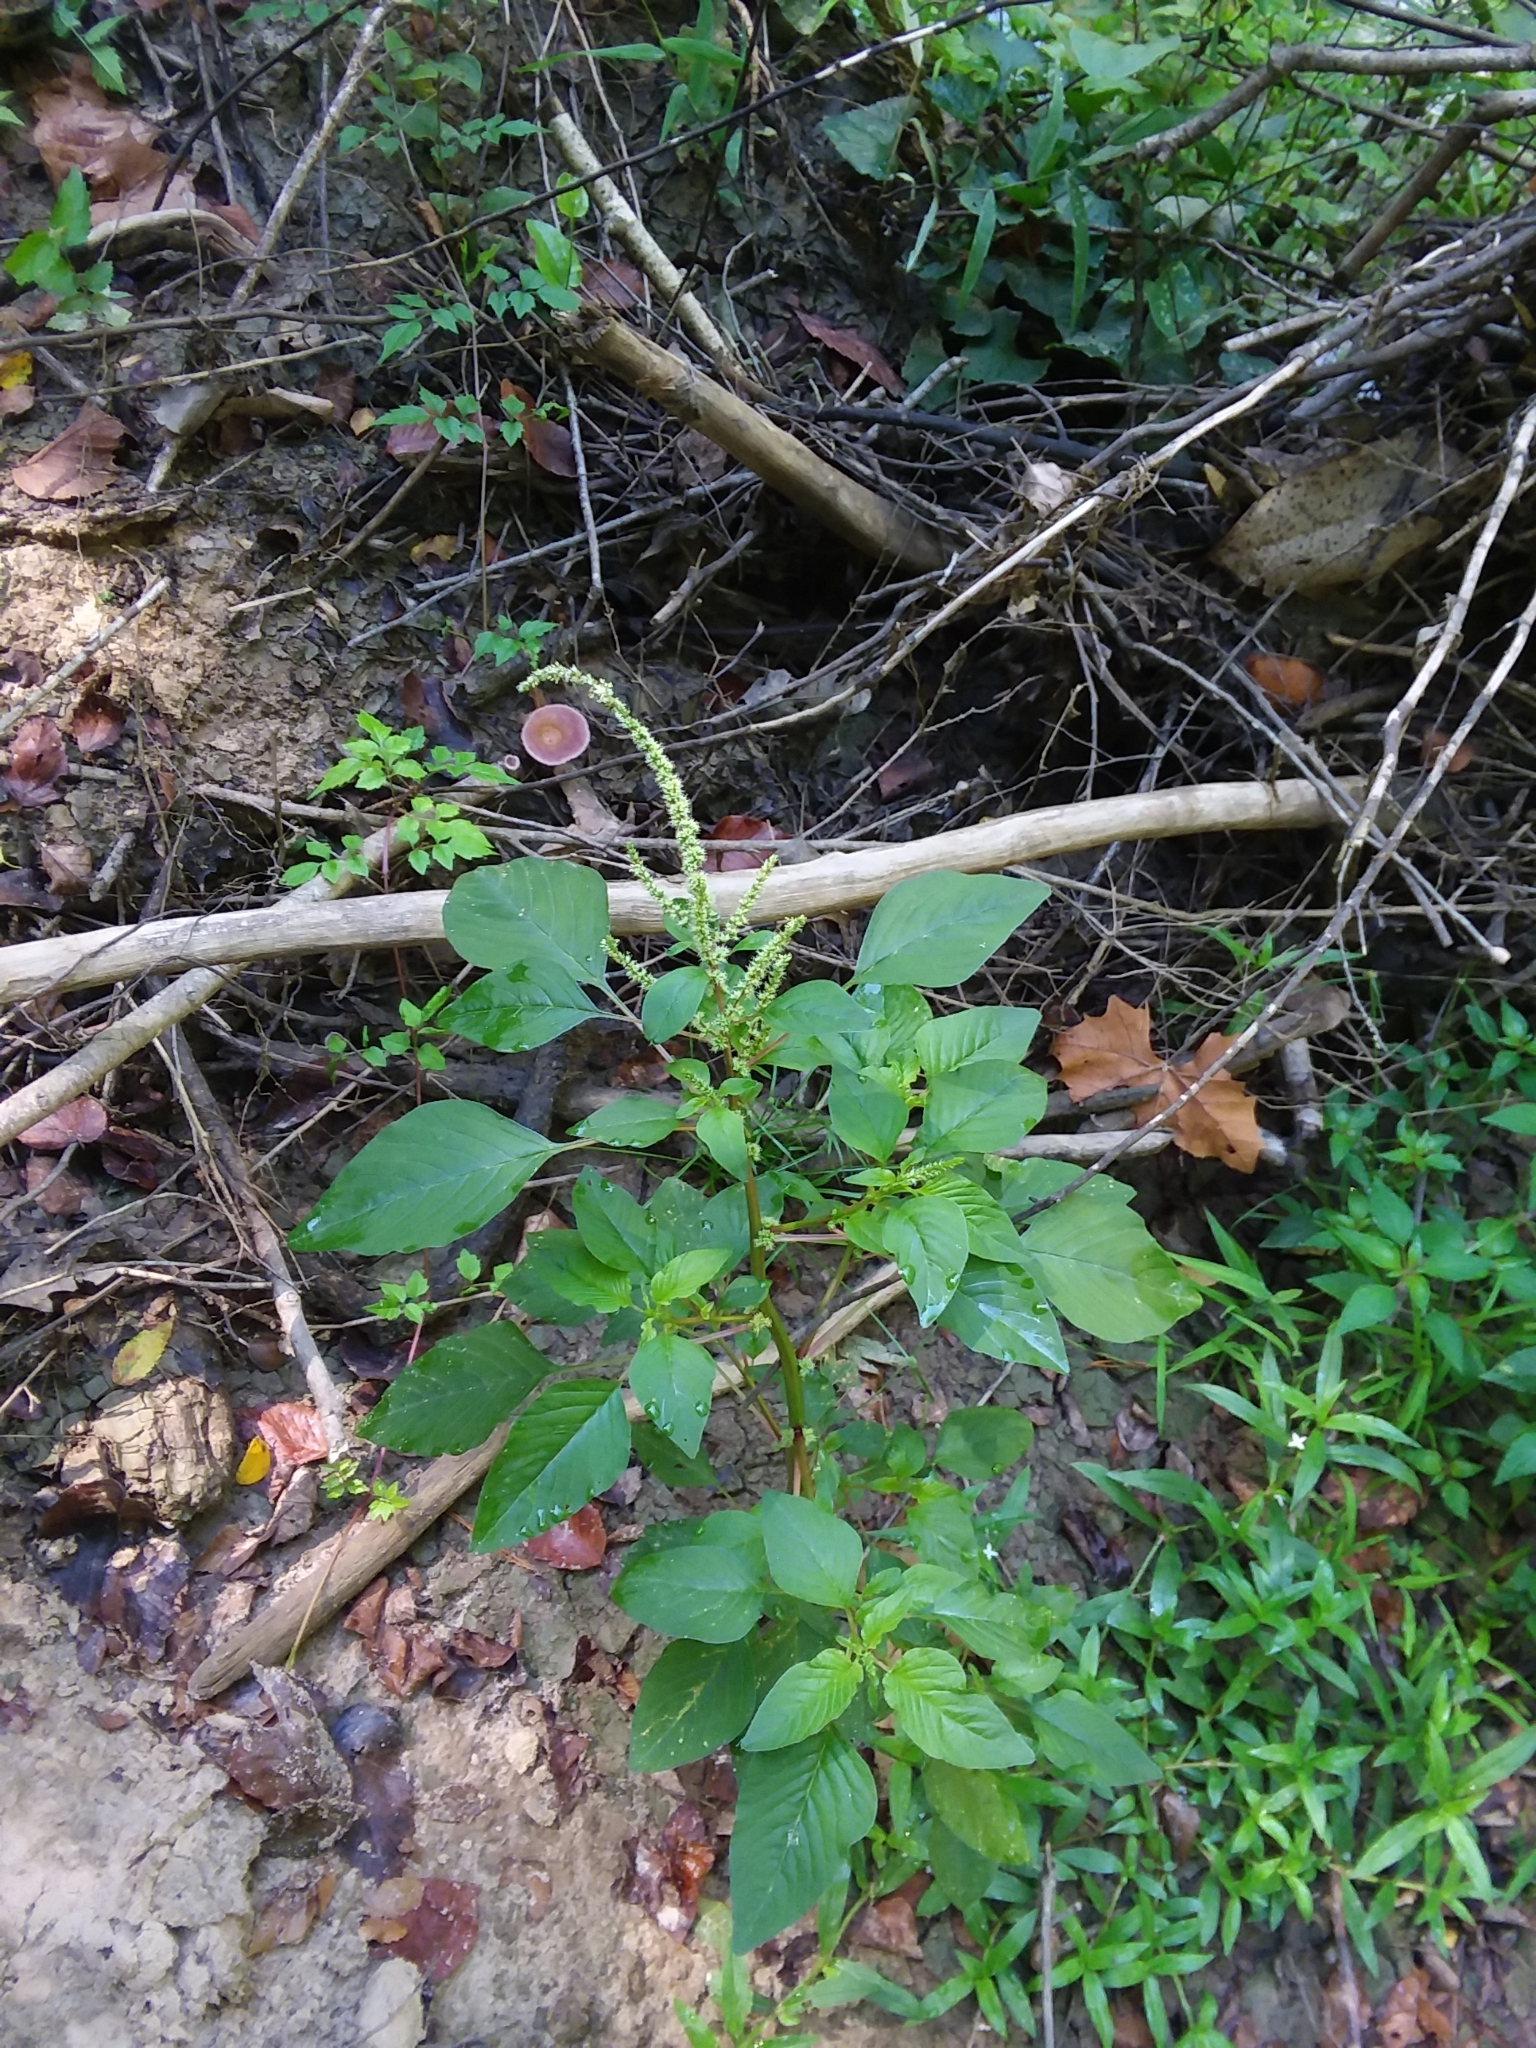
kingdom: Plantae
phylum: Tracheophyta
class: Magnoliopsida
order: Caryophyllales
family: Amaranthaceae
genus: Amaranthus
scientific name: Amaranthus hybridus
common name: Green amaranth
